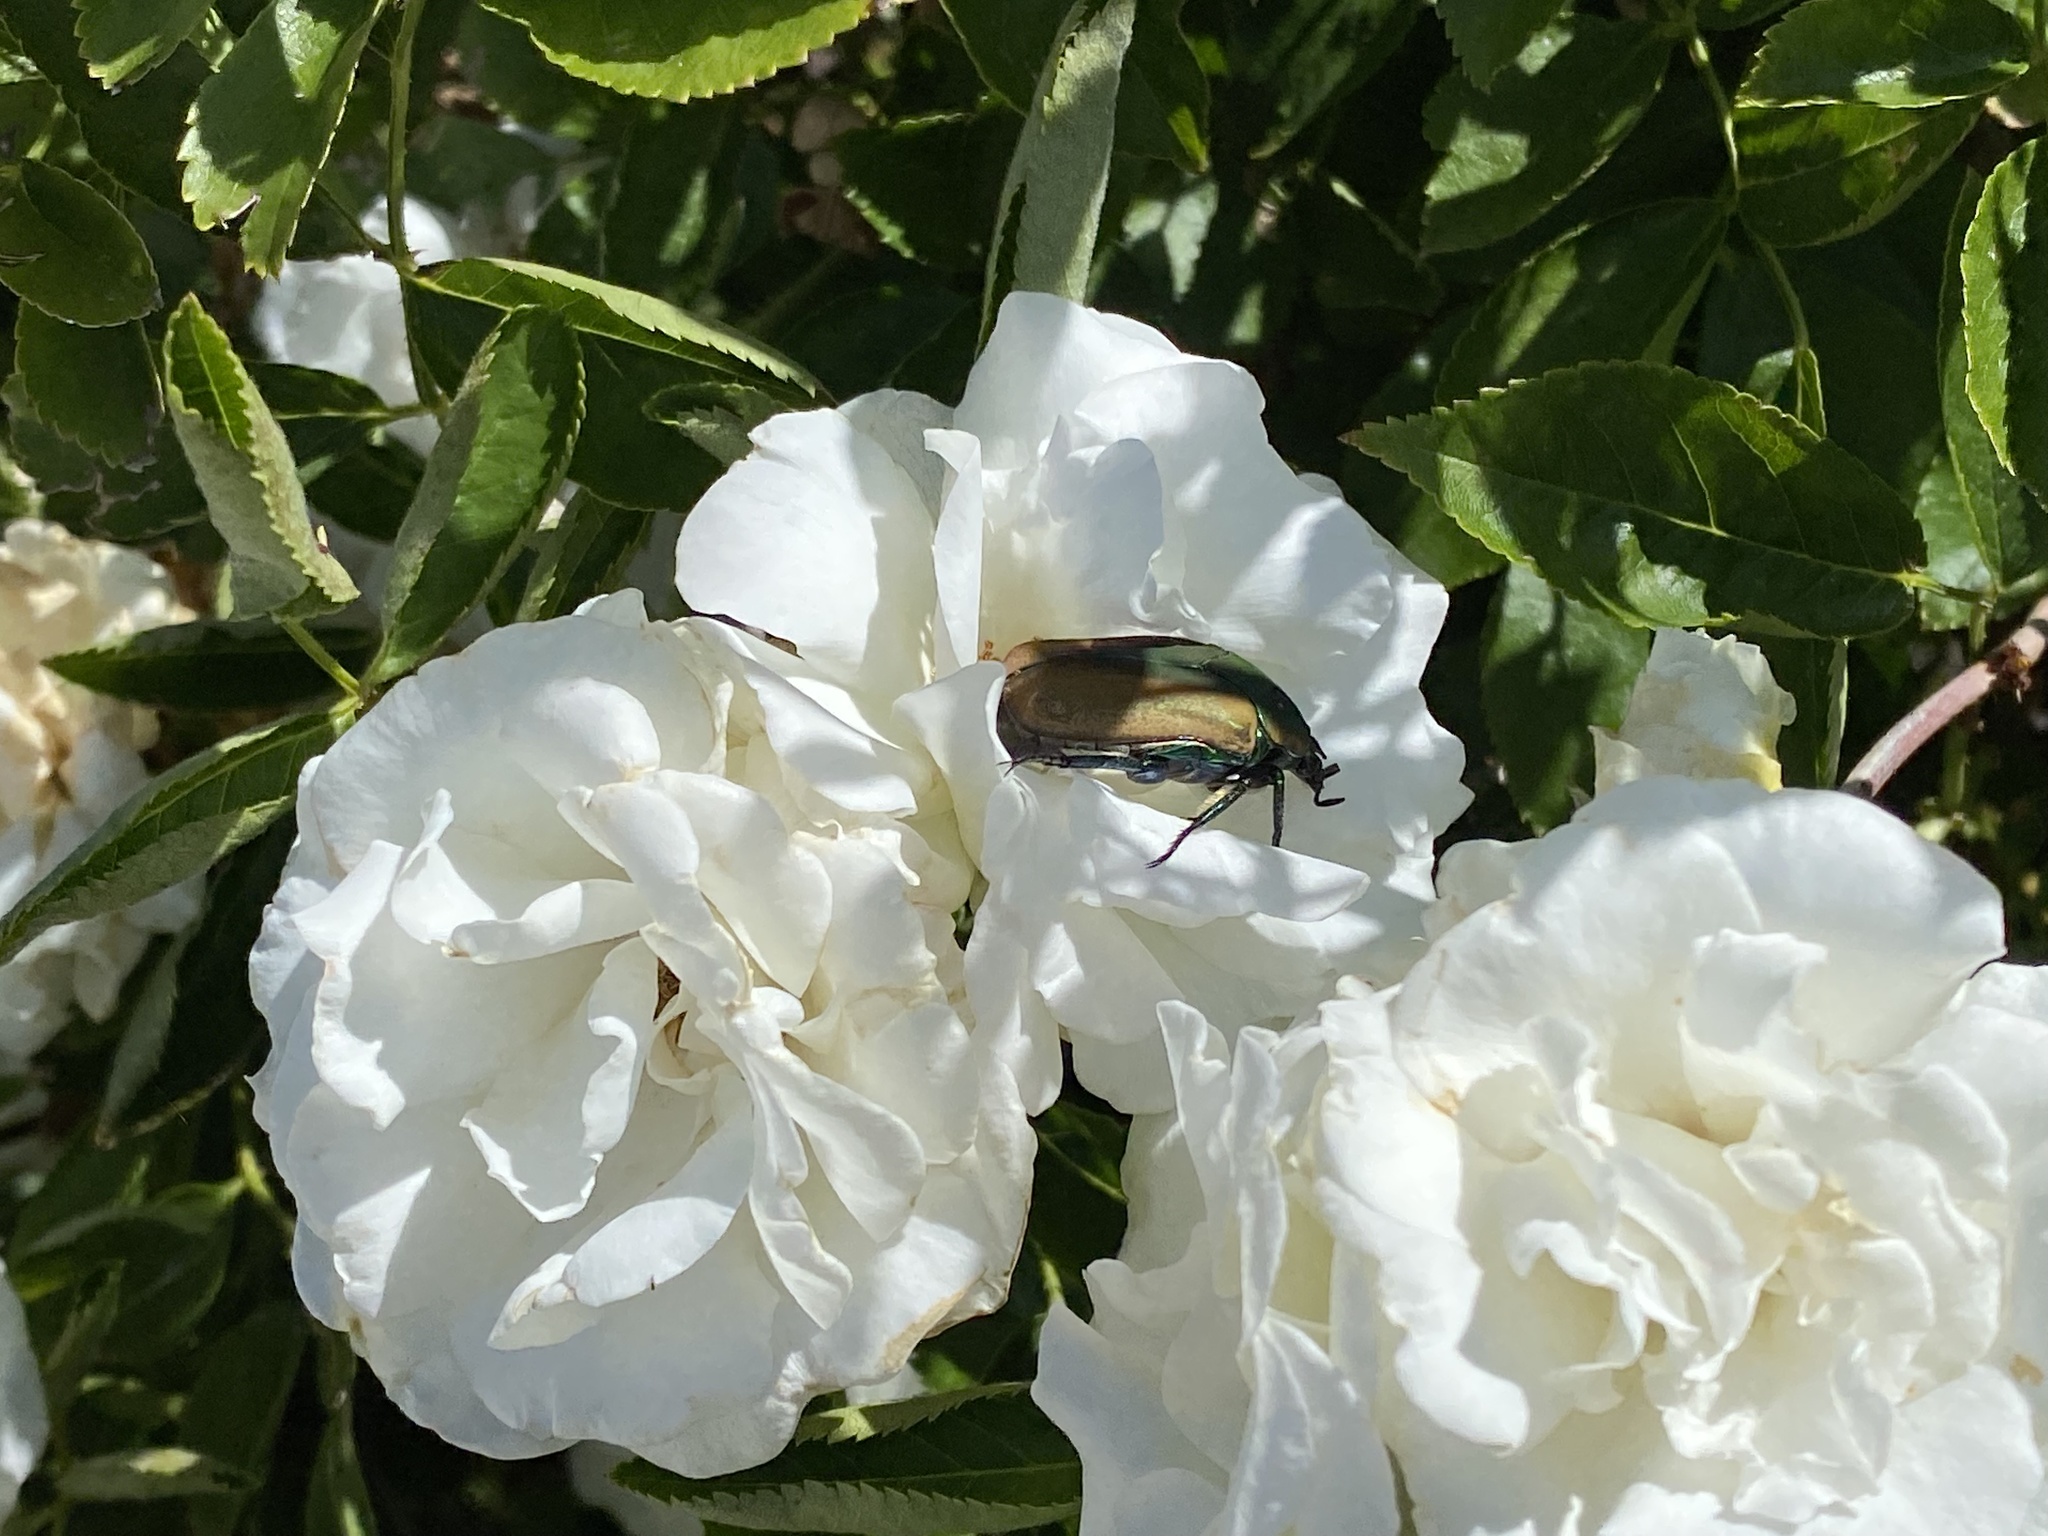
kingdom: Animalia
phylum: Arthropoda
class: Insecta
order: Coleoptera
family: Scarabaeidae
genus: Cotinis
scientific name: Cotinis mutabilis
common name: Figeater beetle
